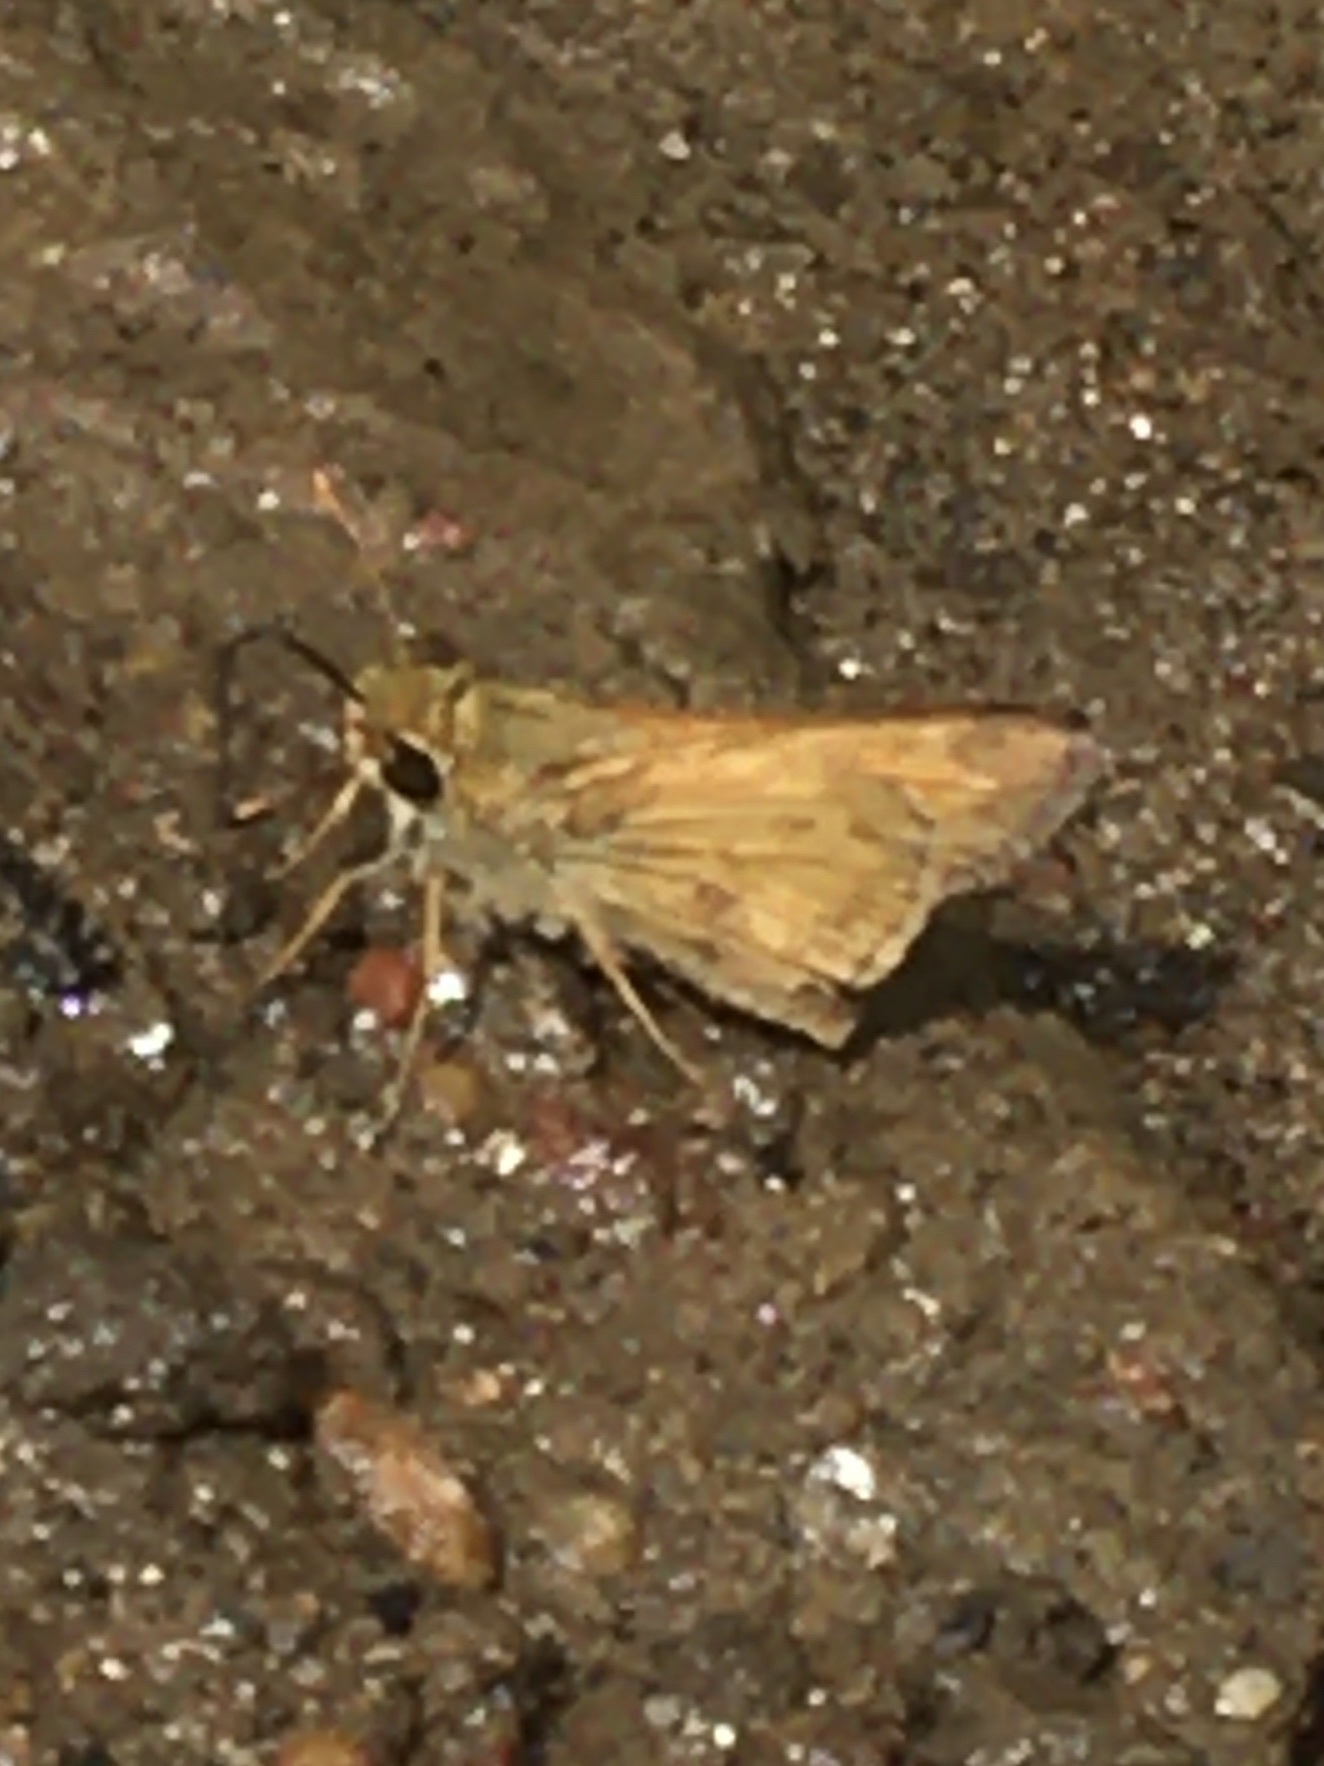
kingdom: Animalia
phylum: Arthropoda
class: Insecta
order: Lepidoptera
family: Hesperiidae
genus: Atalopedes
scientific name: Atalopedes
